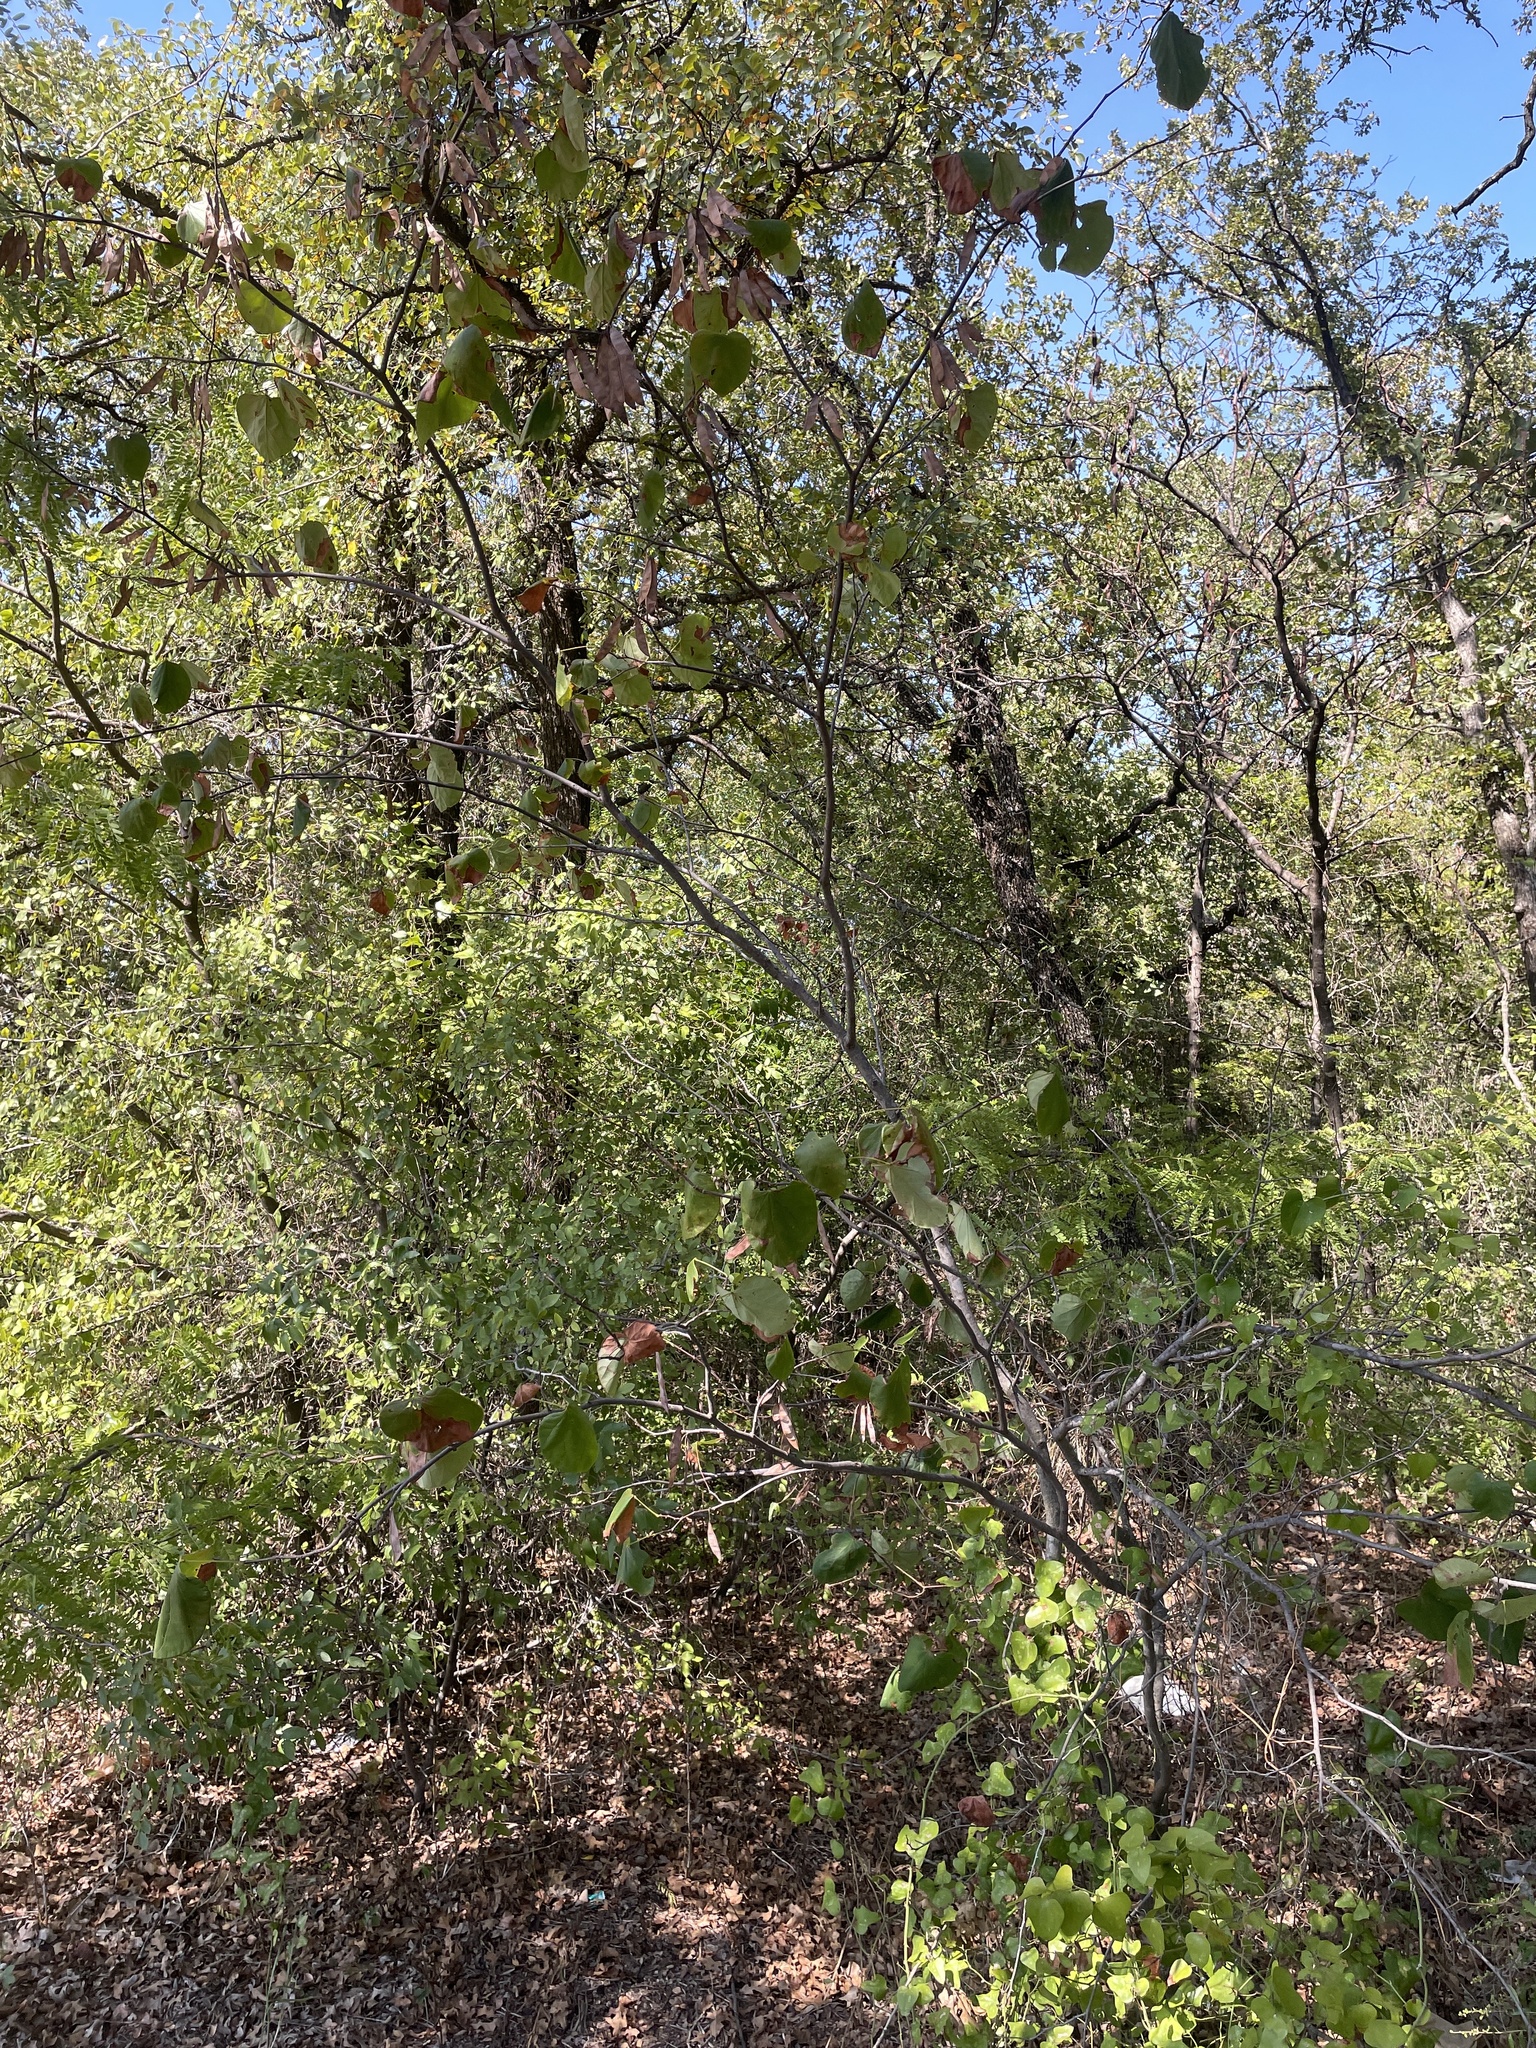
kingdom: Plantae
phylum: Tracheophyta
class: Magnoliopsida
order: Fabales
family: Fabaceae
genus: Cercis
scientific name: Cercis canadensis
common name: Eastern redbud
